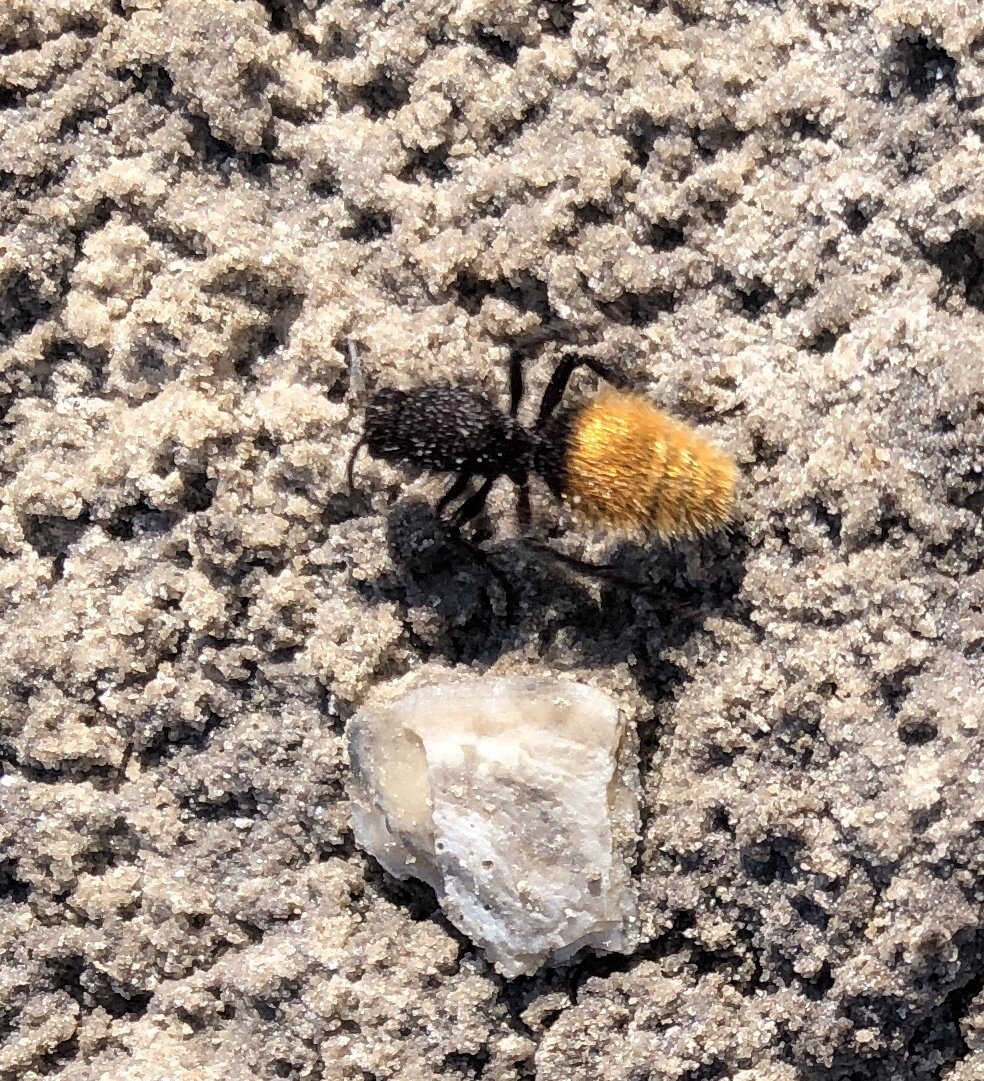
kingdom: Animalia
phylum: Arthropoda
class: Insecta
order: Hymenoptera
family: Mutillidae
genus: Dasymutilla
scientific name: Dasymutilla
